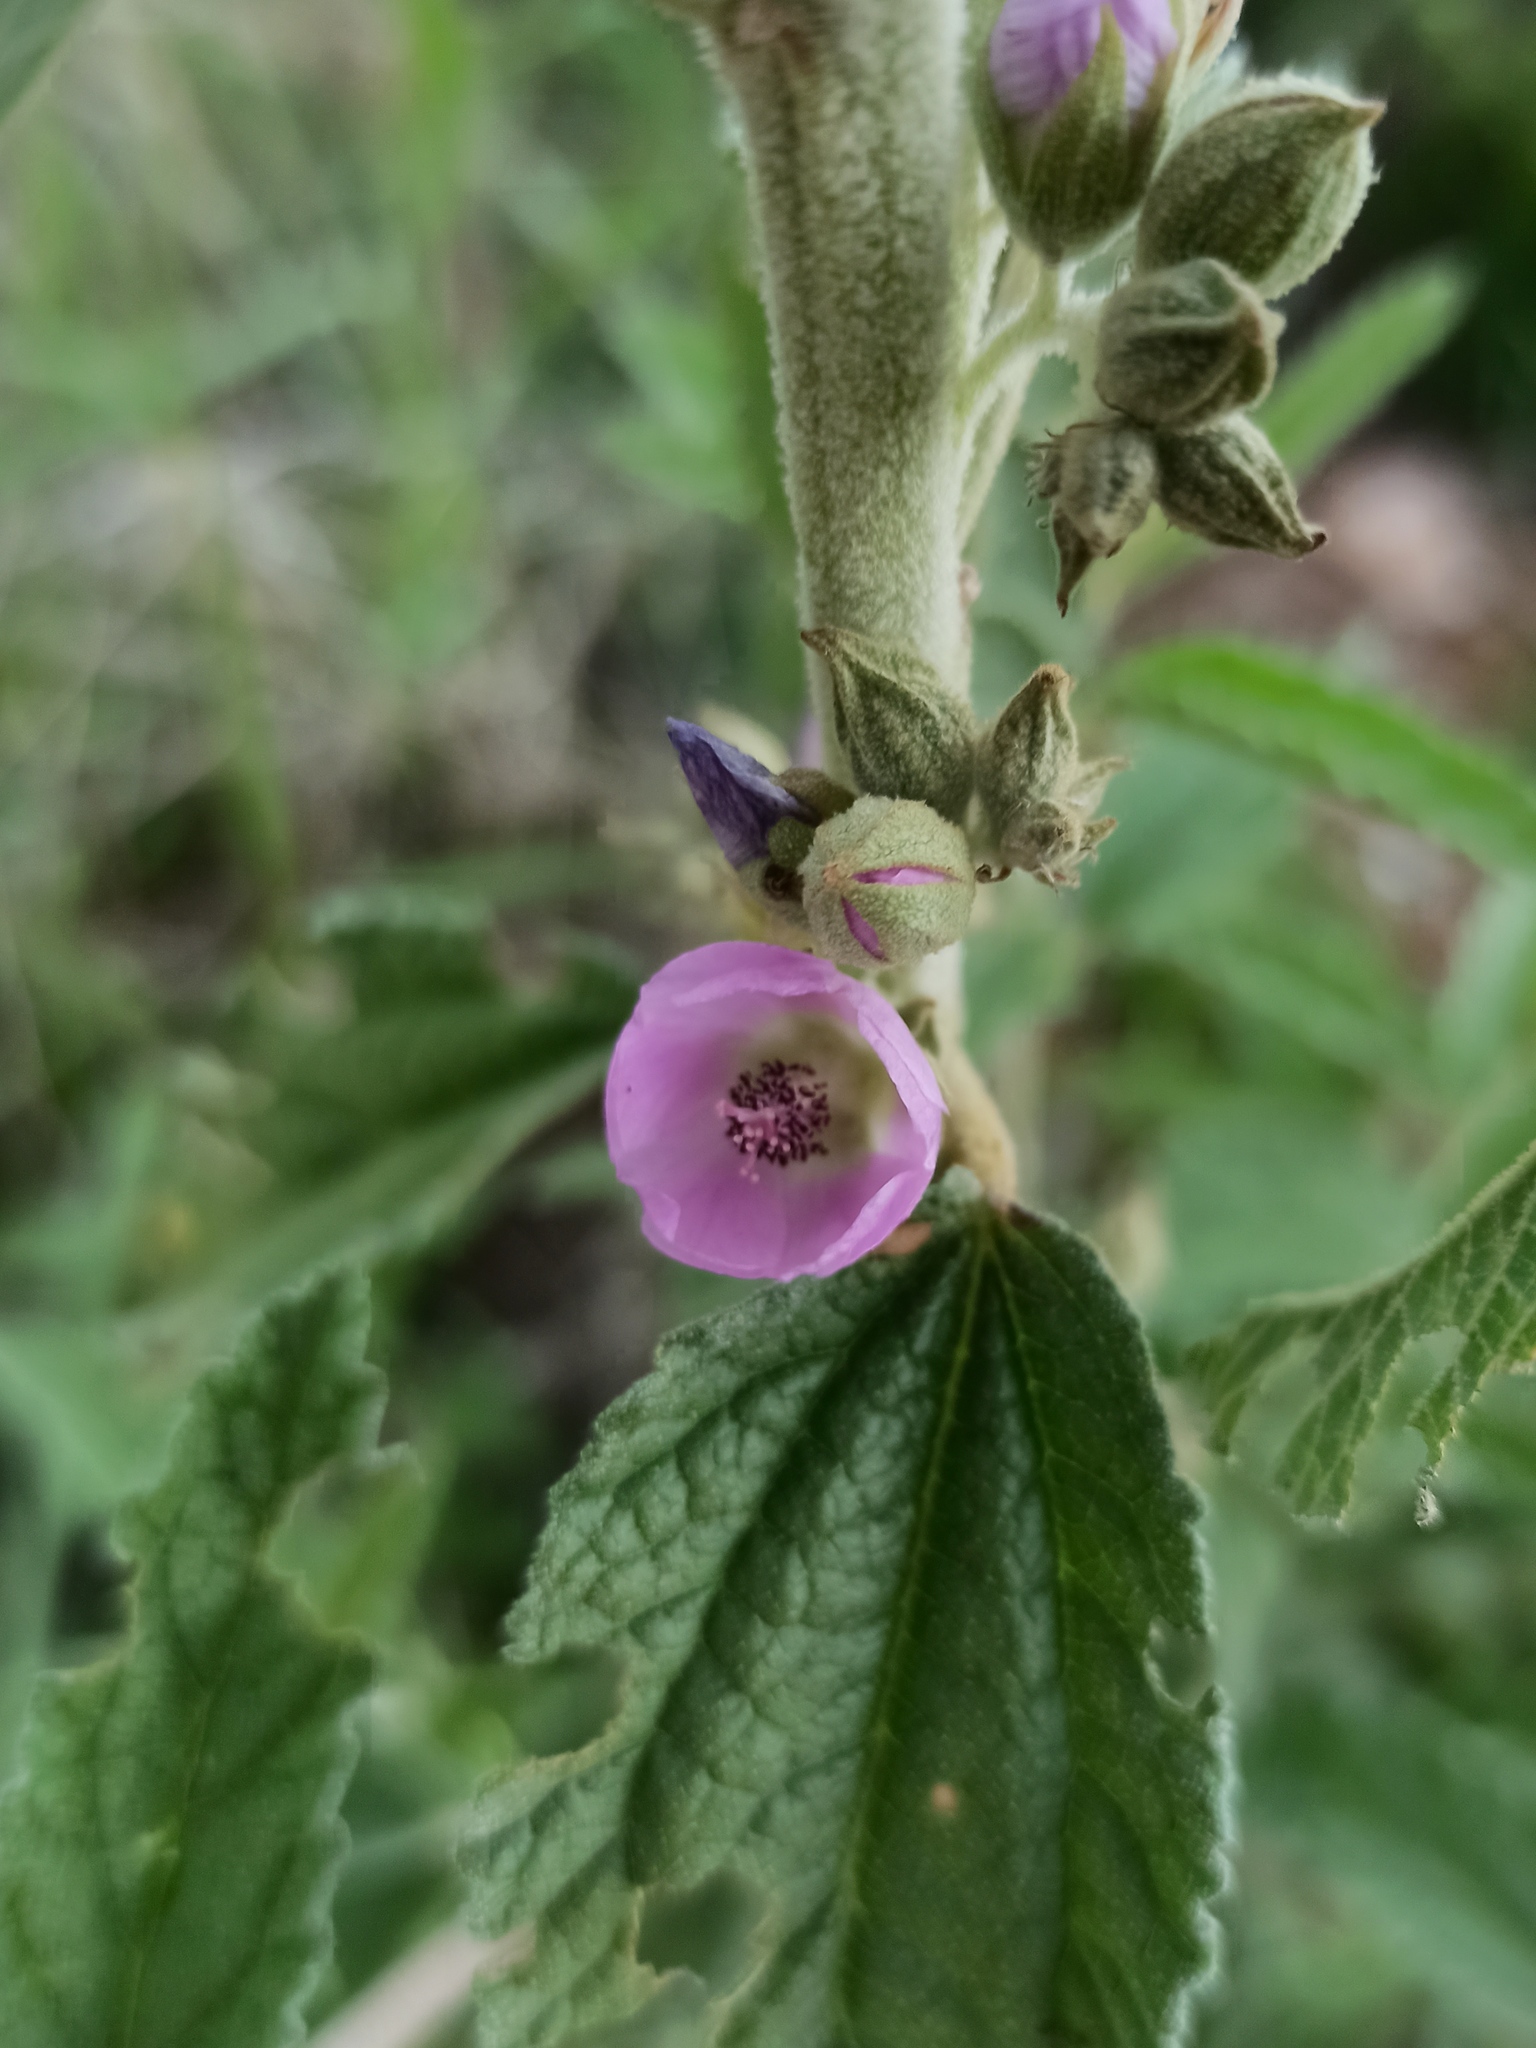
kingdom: Plantae
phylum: Tracheophyta
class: Magnoliopsida
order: Malvales
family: Malvaceae
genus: Sphaeralcea
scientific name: Sphaeralcea angustifolia
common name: Copper globe-mallow
